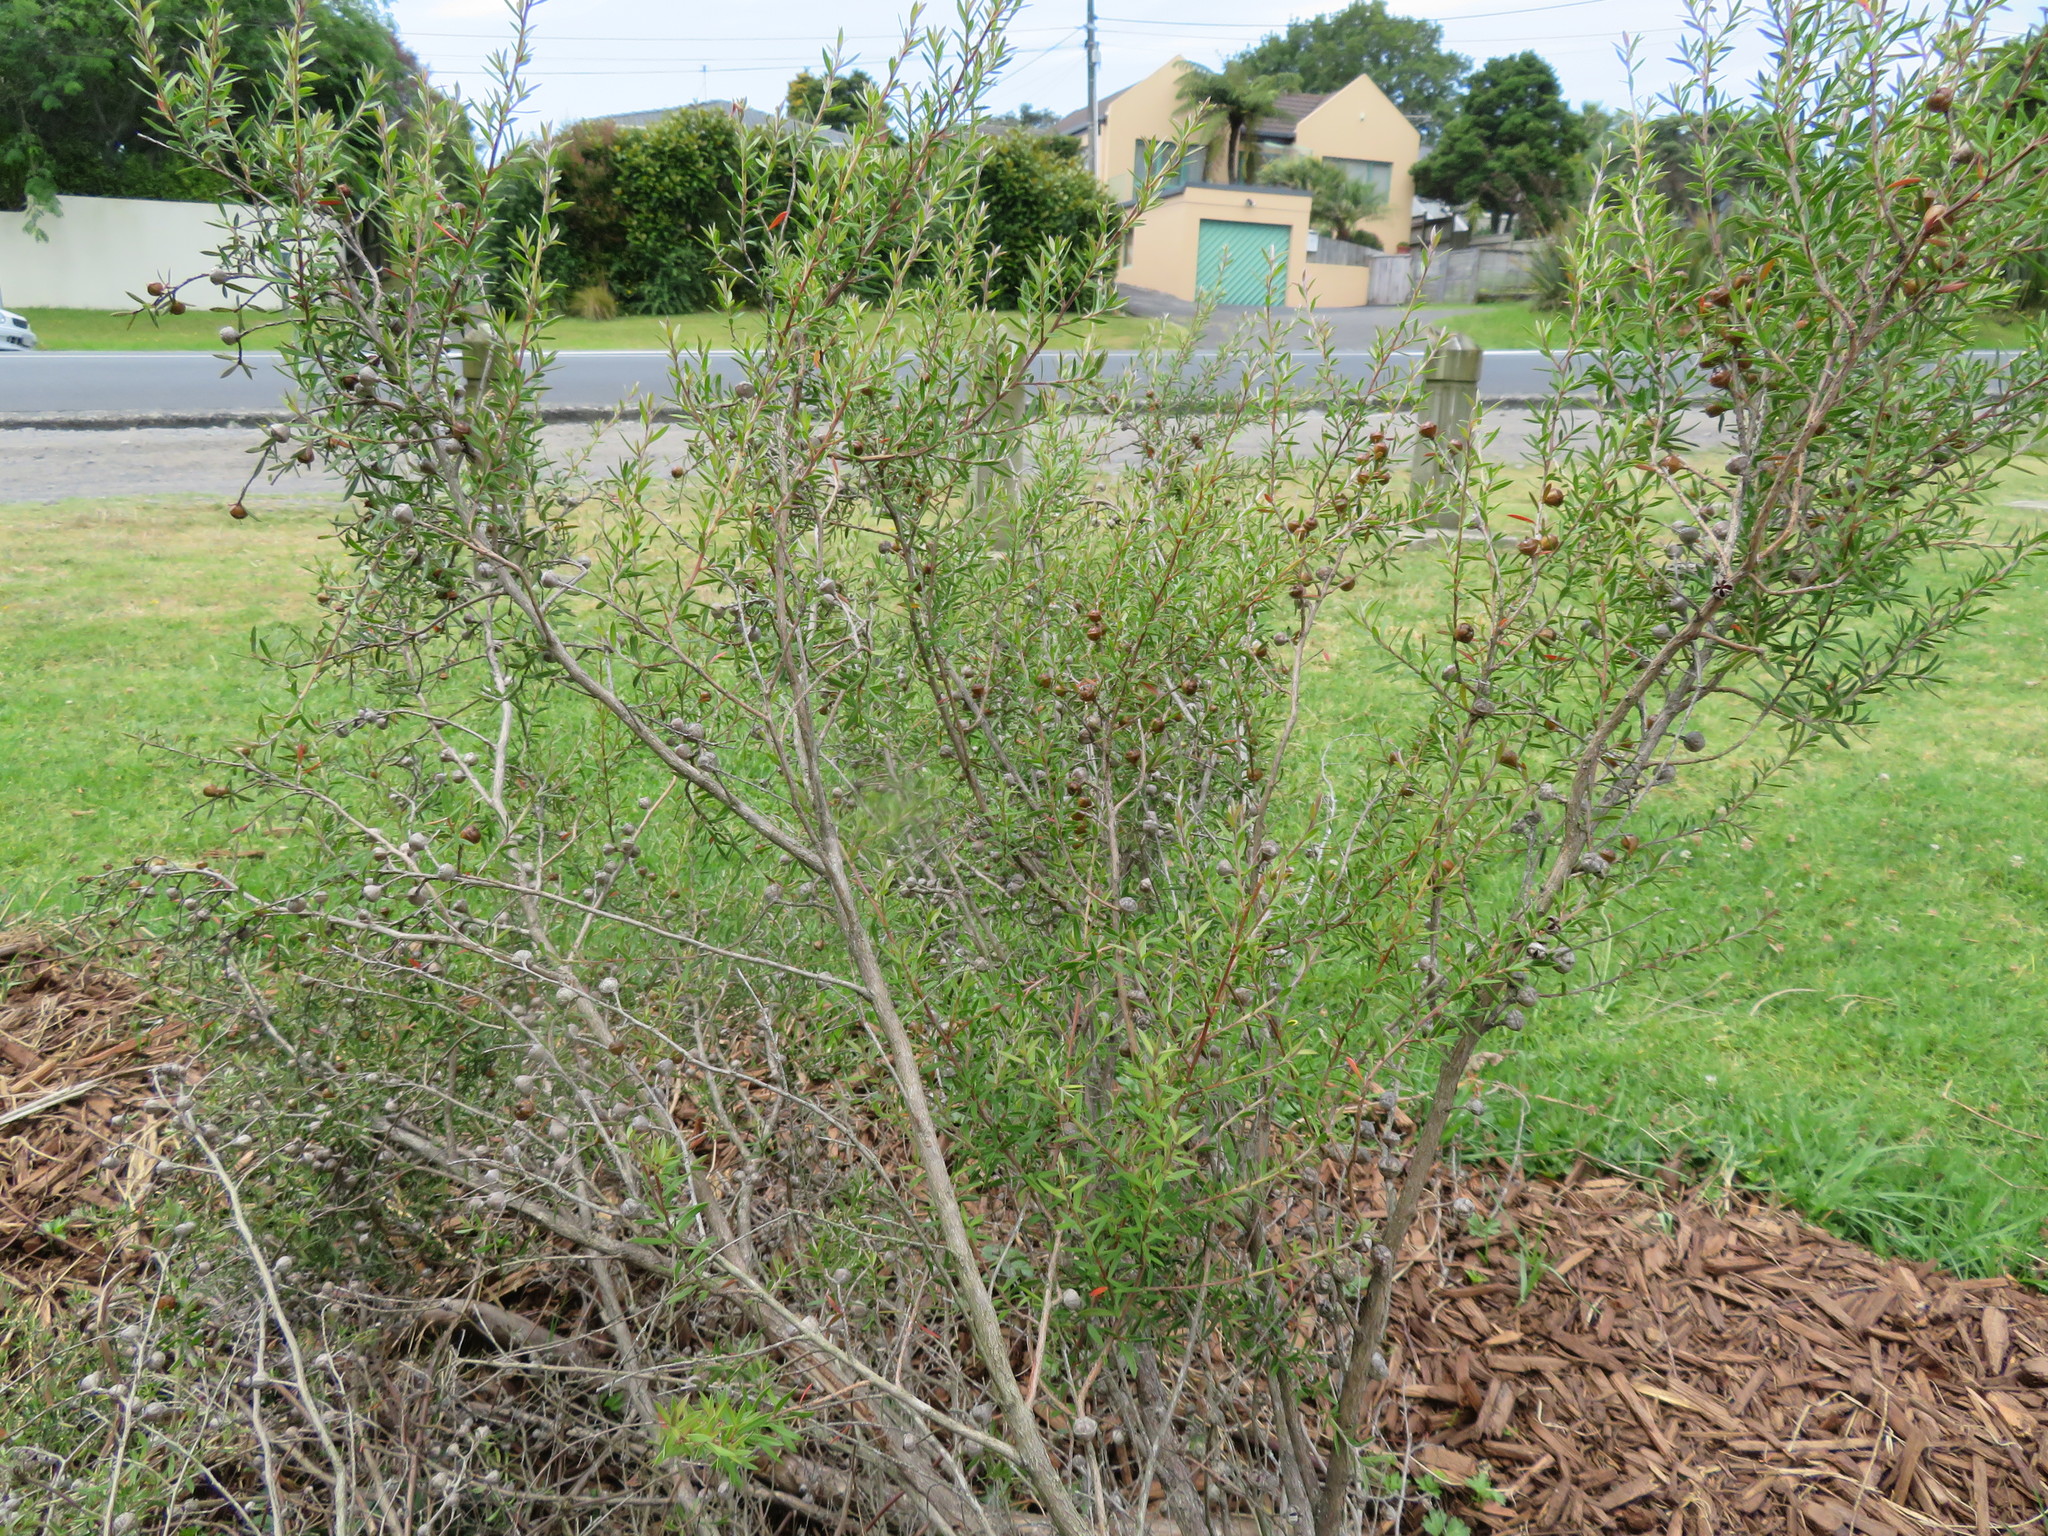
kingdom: Plantae
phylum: Tracheophyta
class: Magnoliopsida
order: Ericales
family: Primulaceae
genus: Lysimachia
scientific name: Lysimachia arvensis
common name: Scarlet pimpernel
